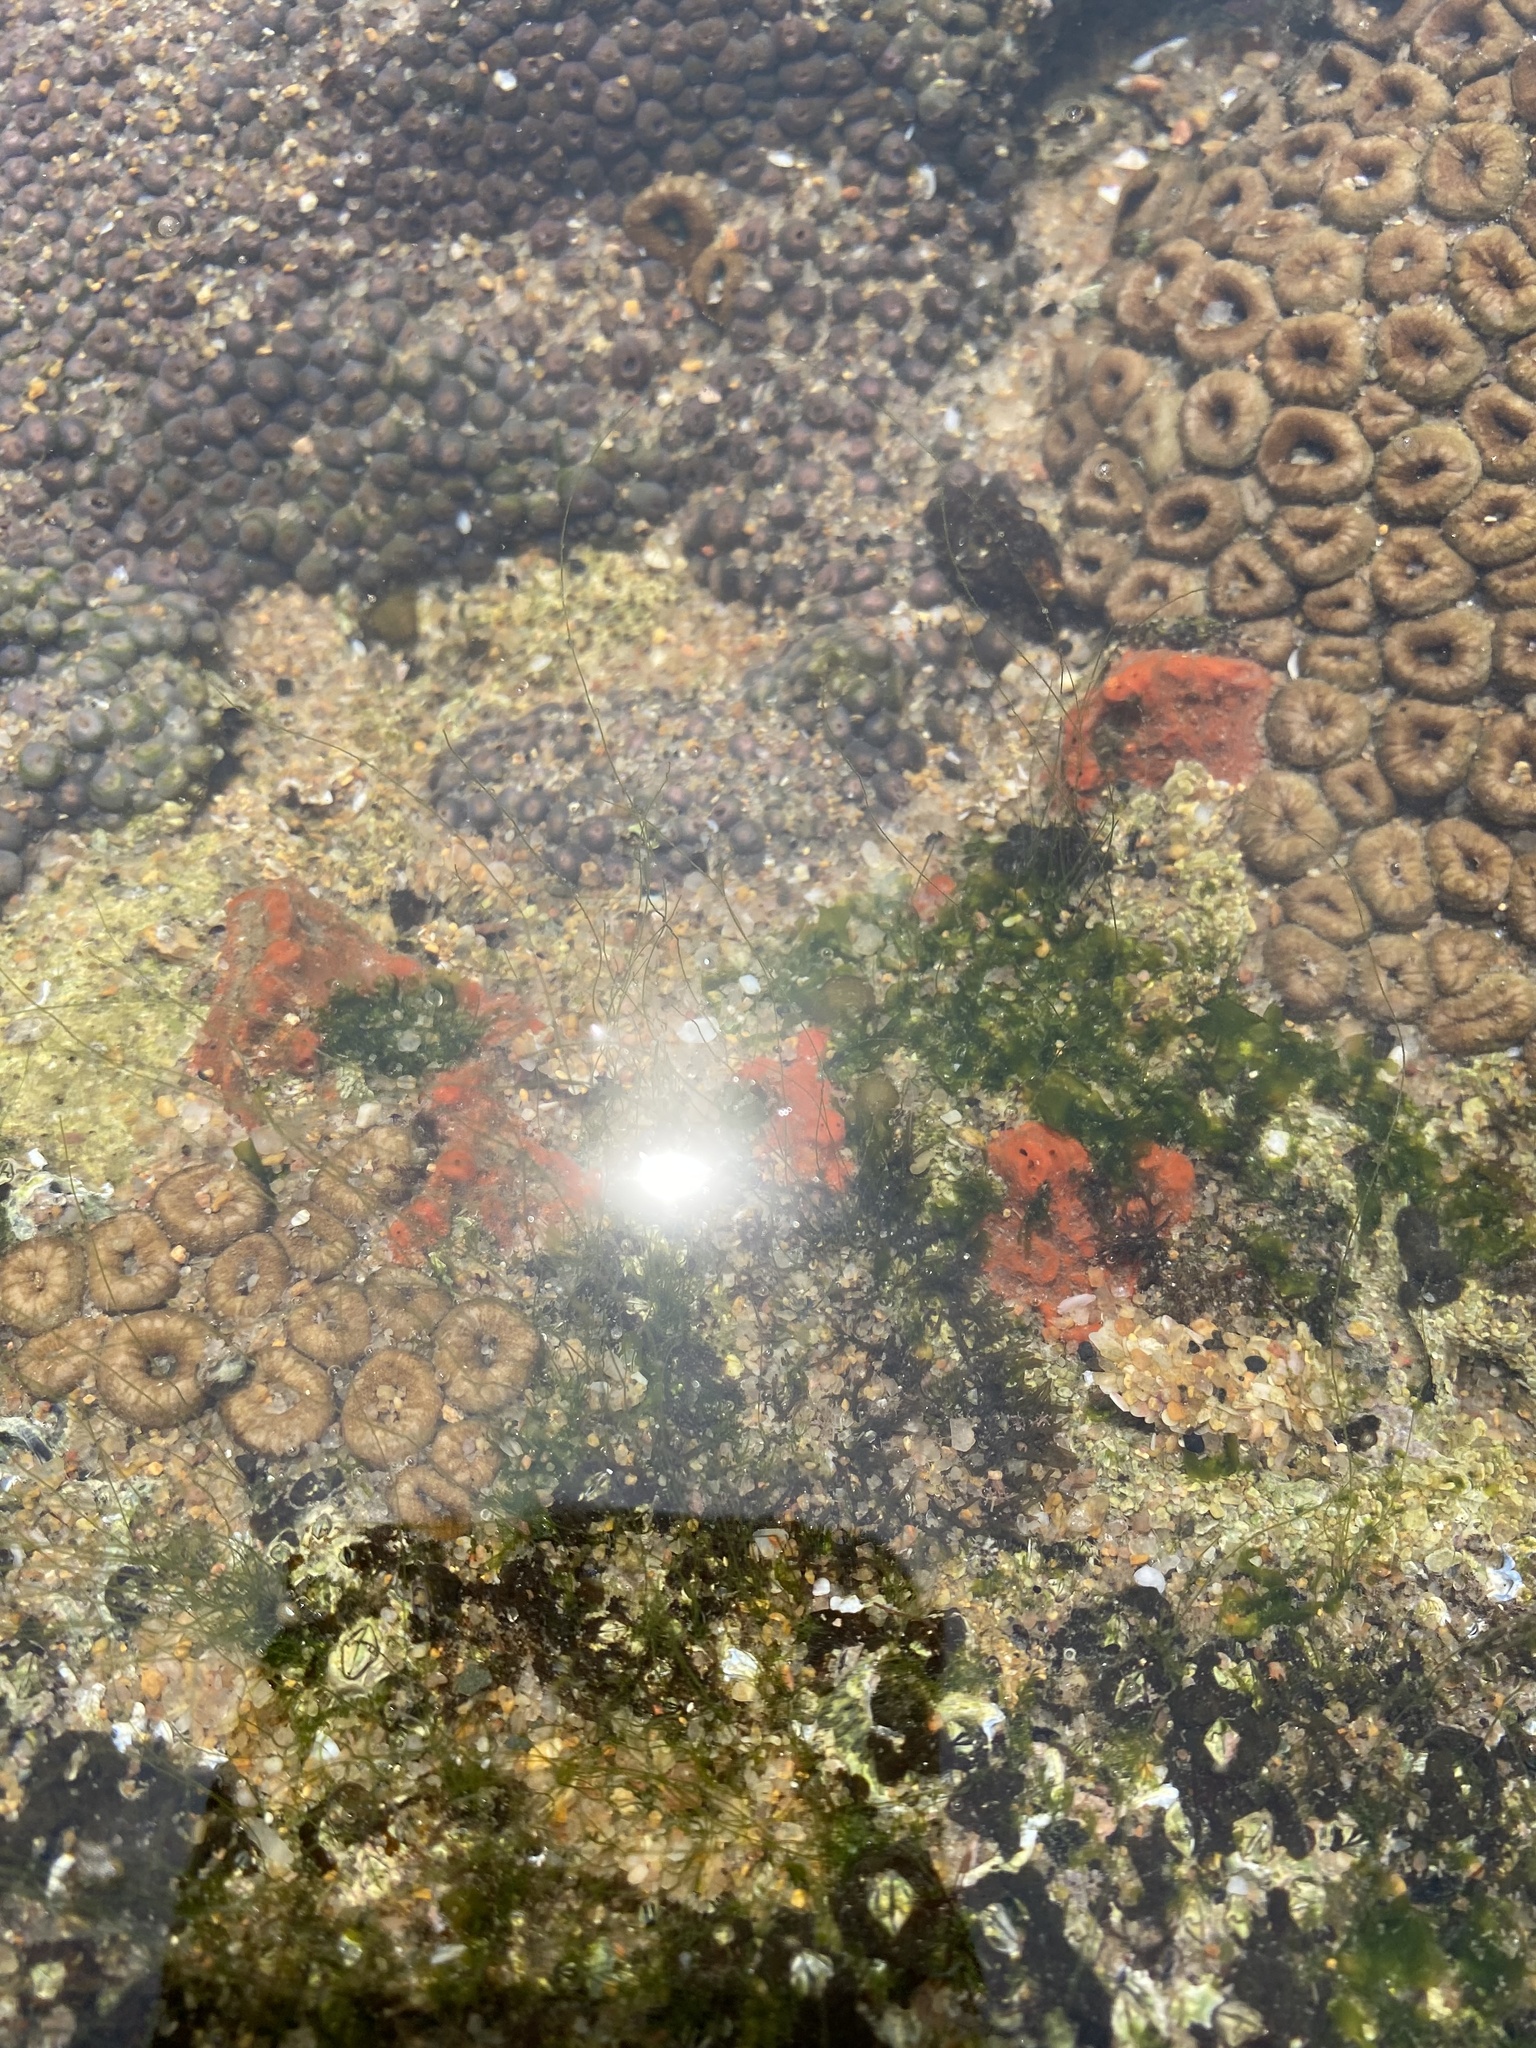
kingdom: Animalia
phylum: Cnidaria
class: Anthozoa
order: Zoantharia
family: Sphenopidae
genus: Palythoa
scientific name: Palythoa mutuki
